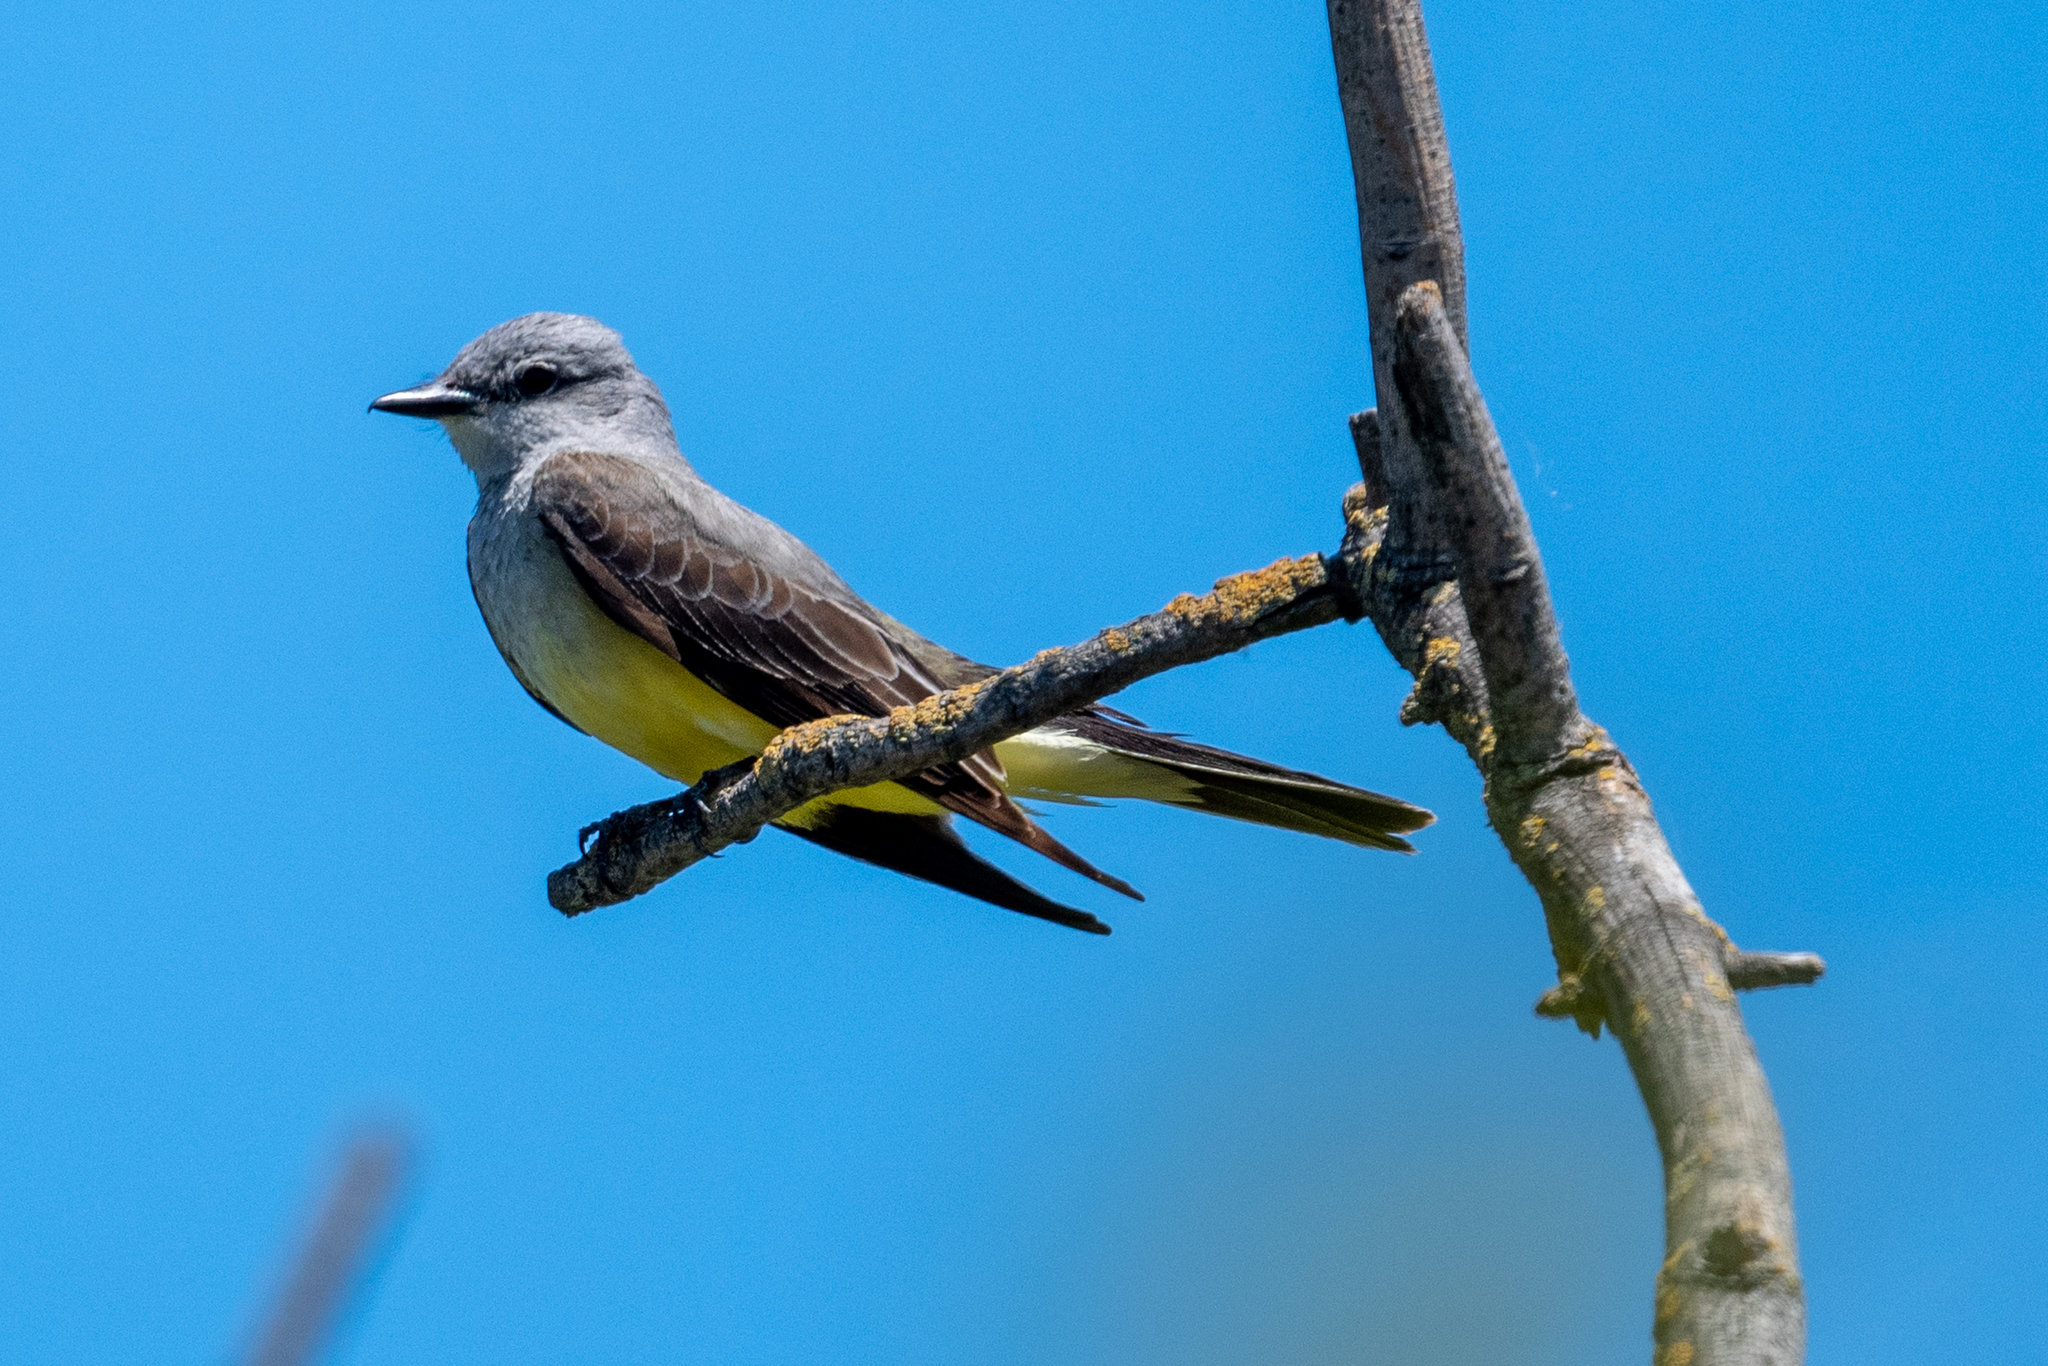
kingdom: Animalia
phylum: Chordata
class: Aves
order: Passeriformes
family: Tyrannidae
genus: Tyrannus
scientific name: Tyrannus verticalis
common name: Western kingbird
